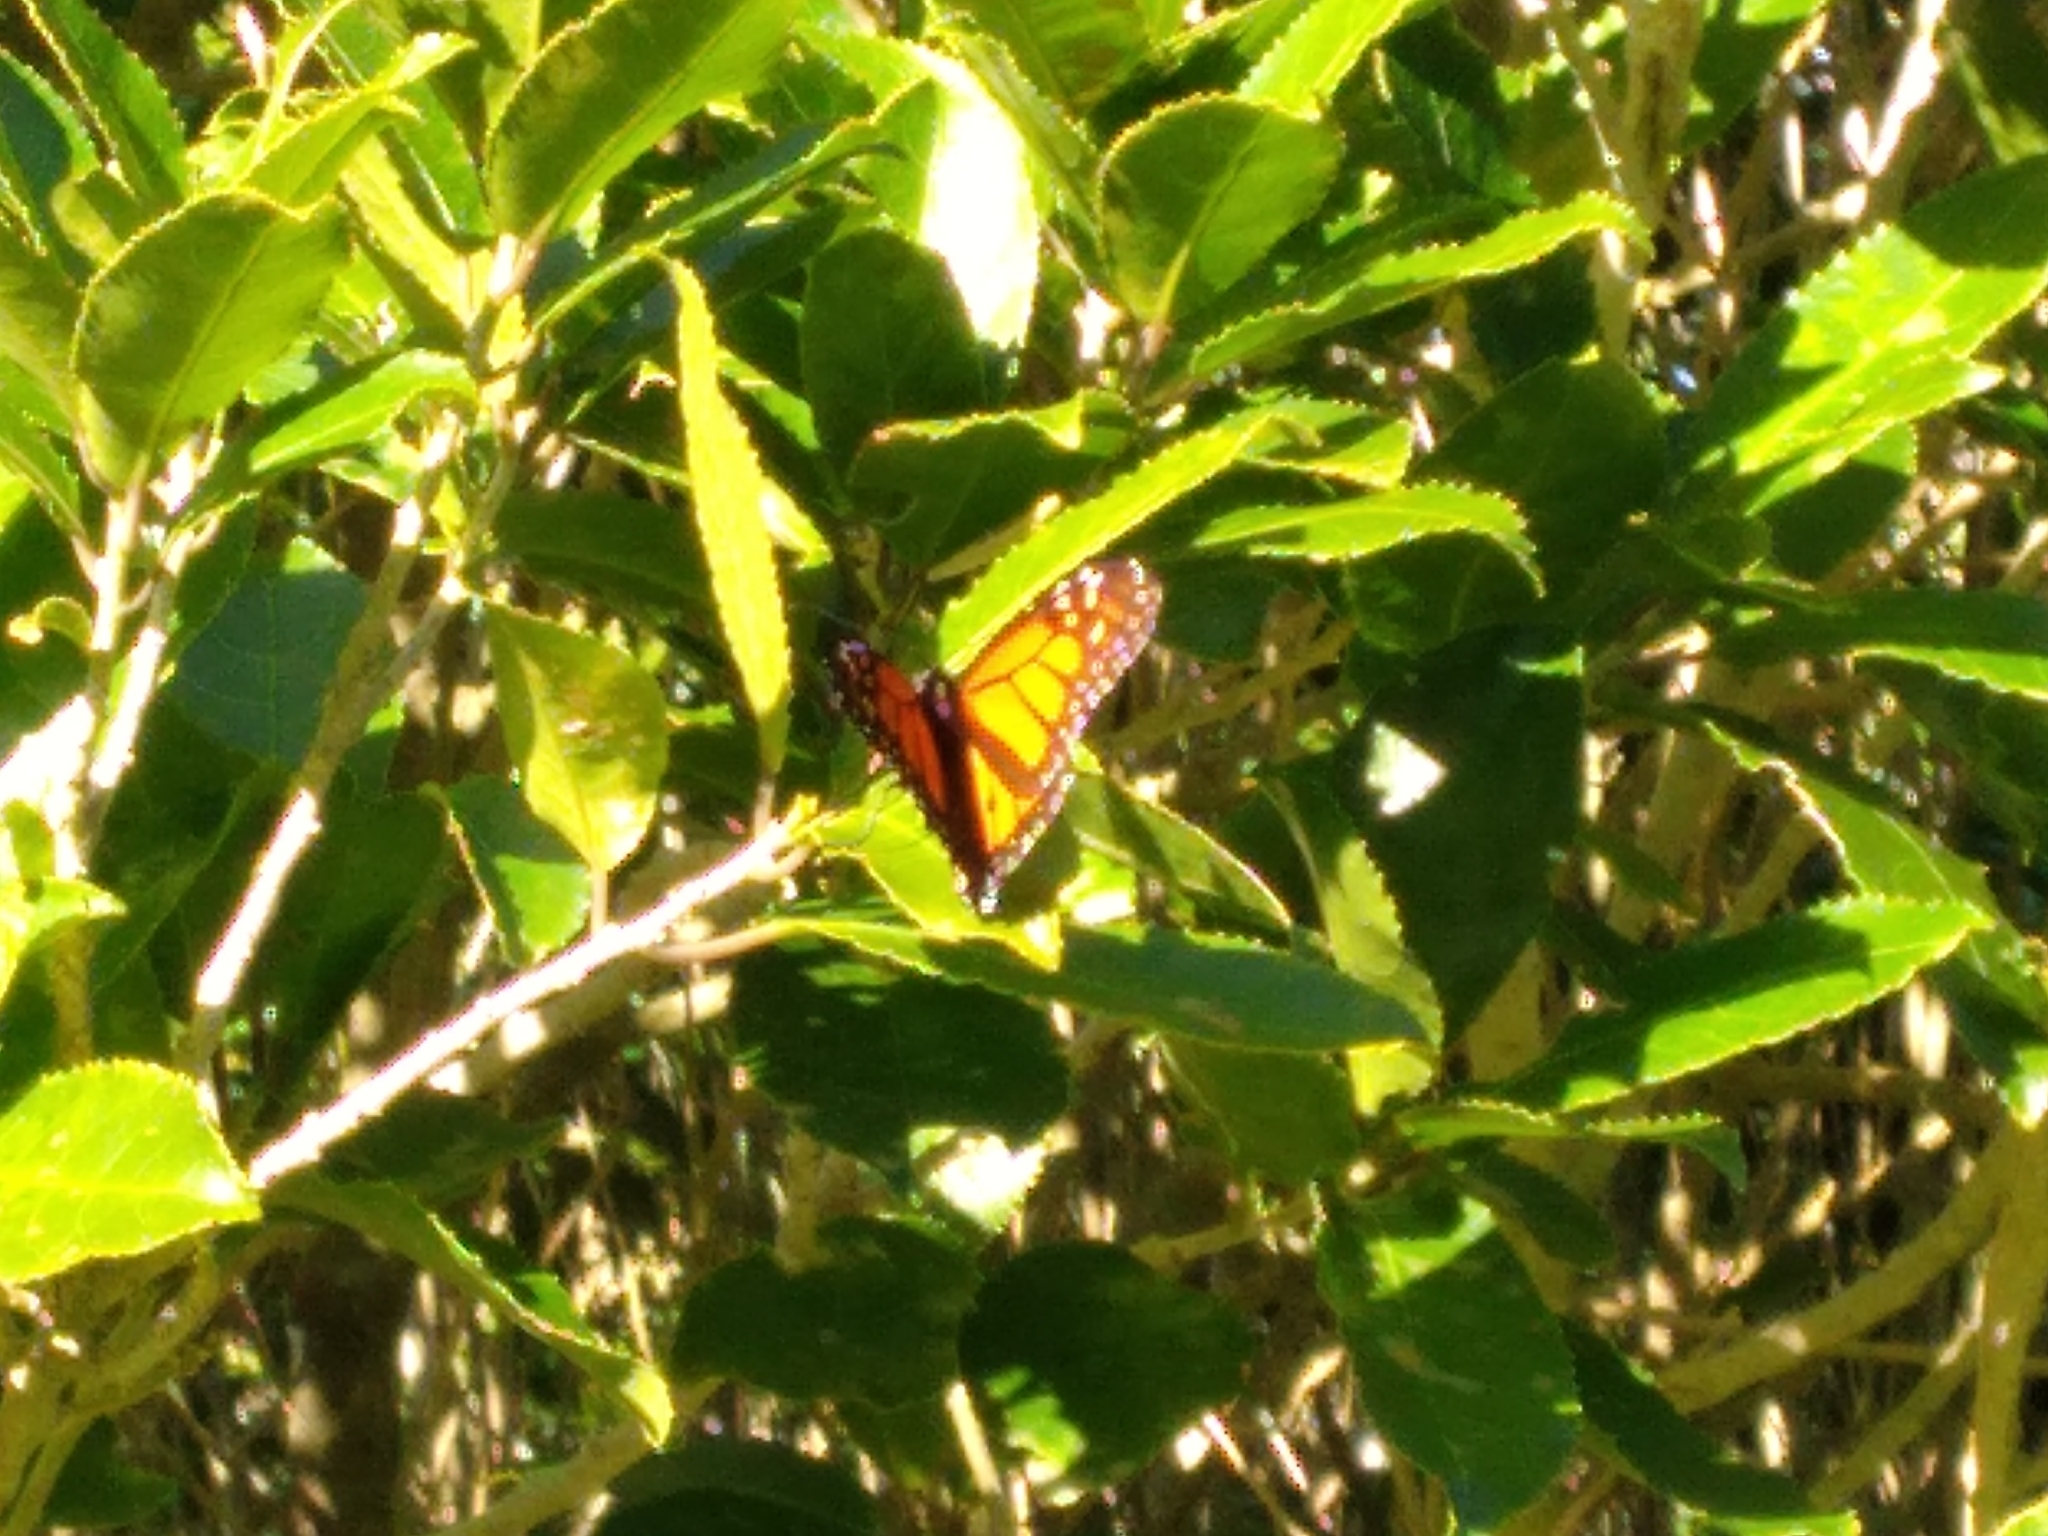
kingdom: Animalia
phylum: Arthropoda
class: Insecta
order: Lepidoptera
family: Nymphalidae
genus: Danaus
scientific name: Danaus plexippus
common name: Monarch
